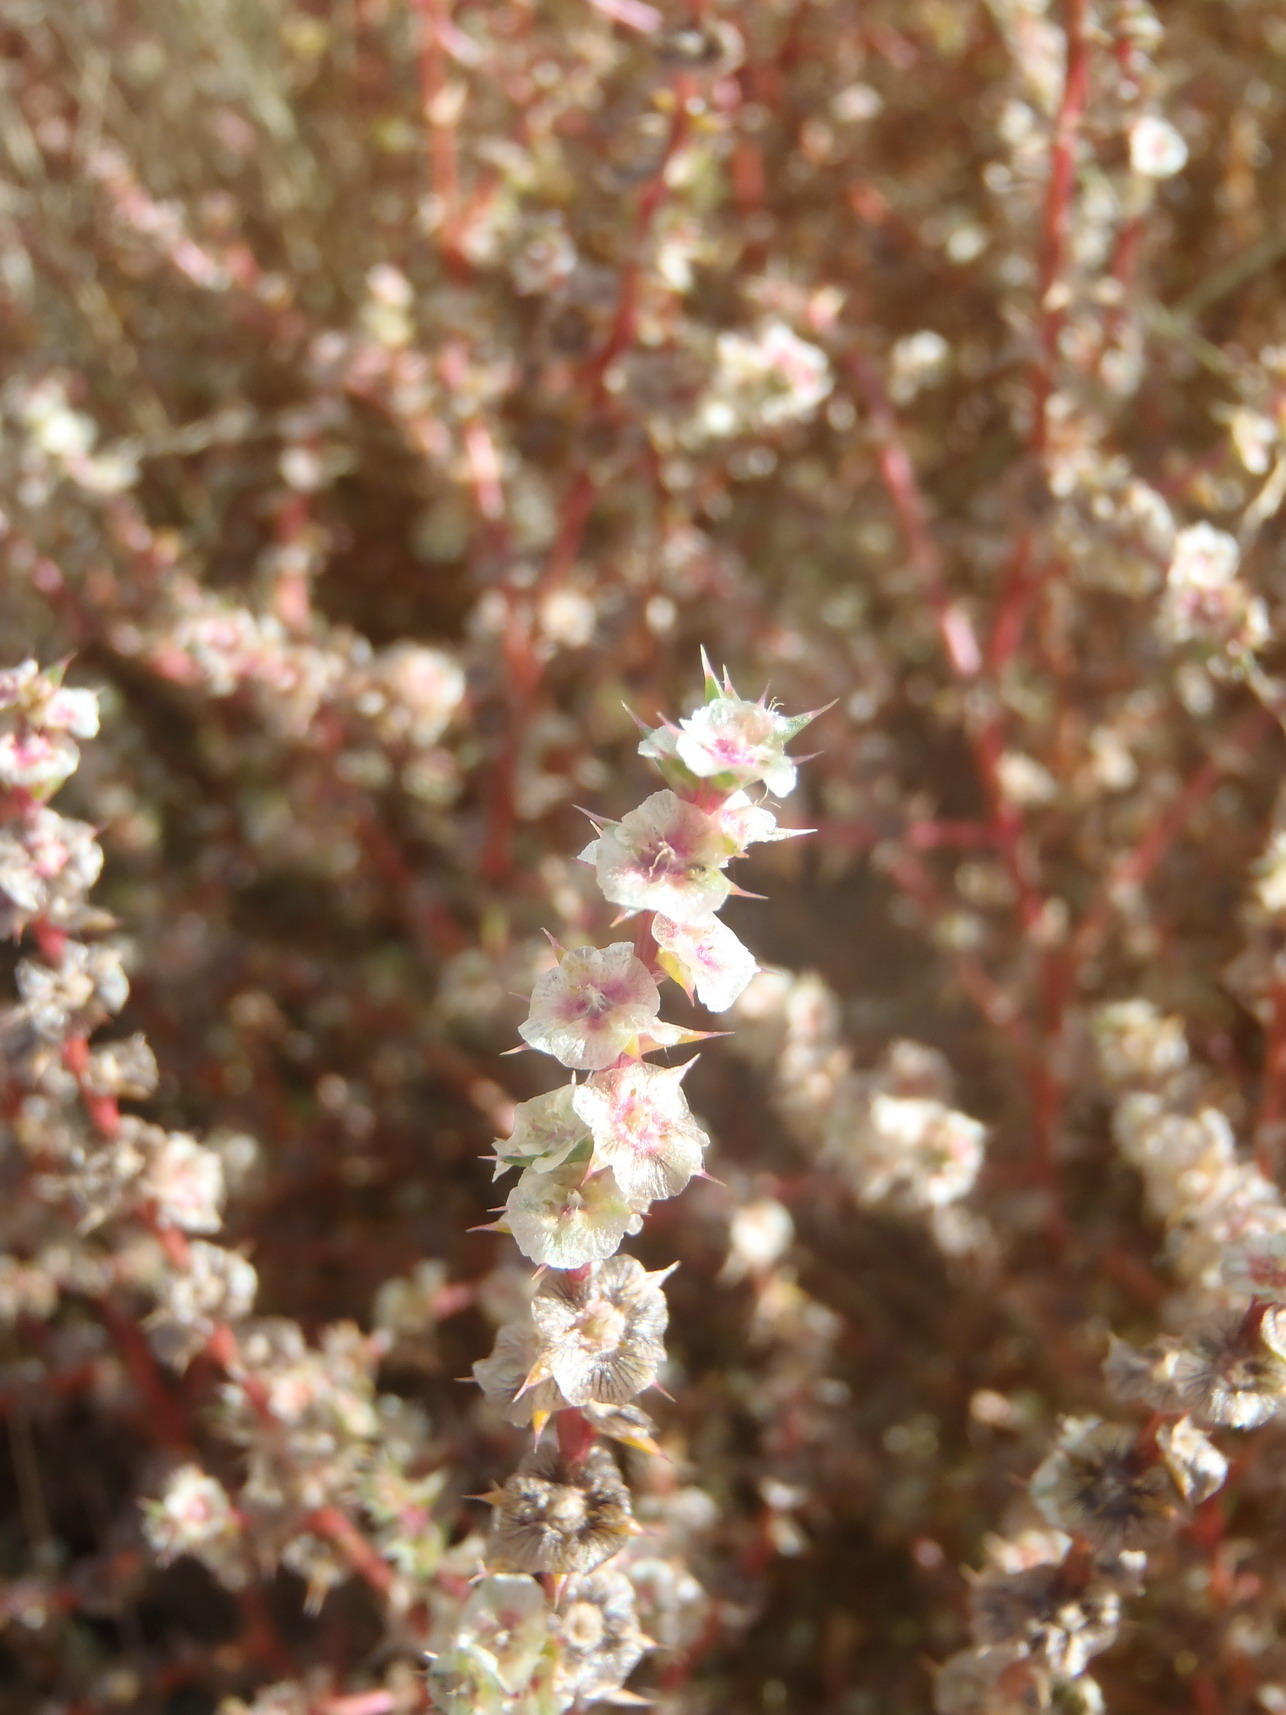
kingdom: Plantae
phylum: Tracheophyta
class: Magnoliopsida
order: Caryophyllales
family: Amaranthaceae
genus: Salsola
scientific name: Salsola kali
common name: Saltwort
